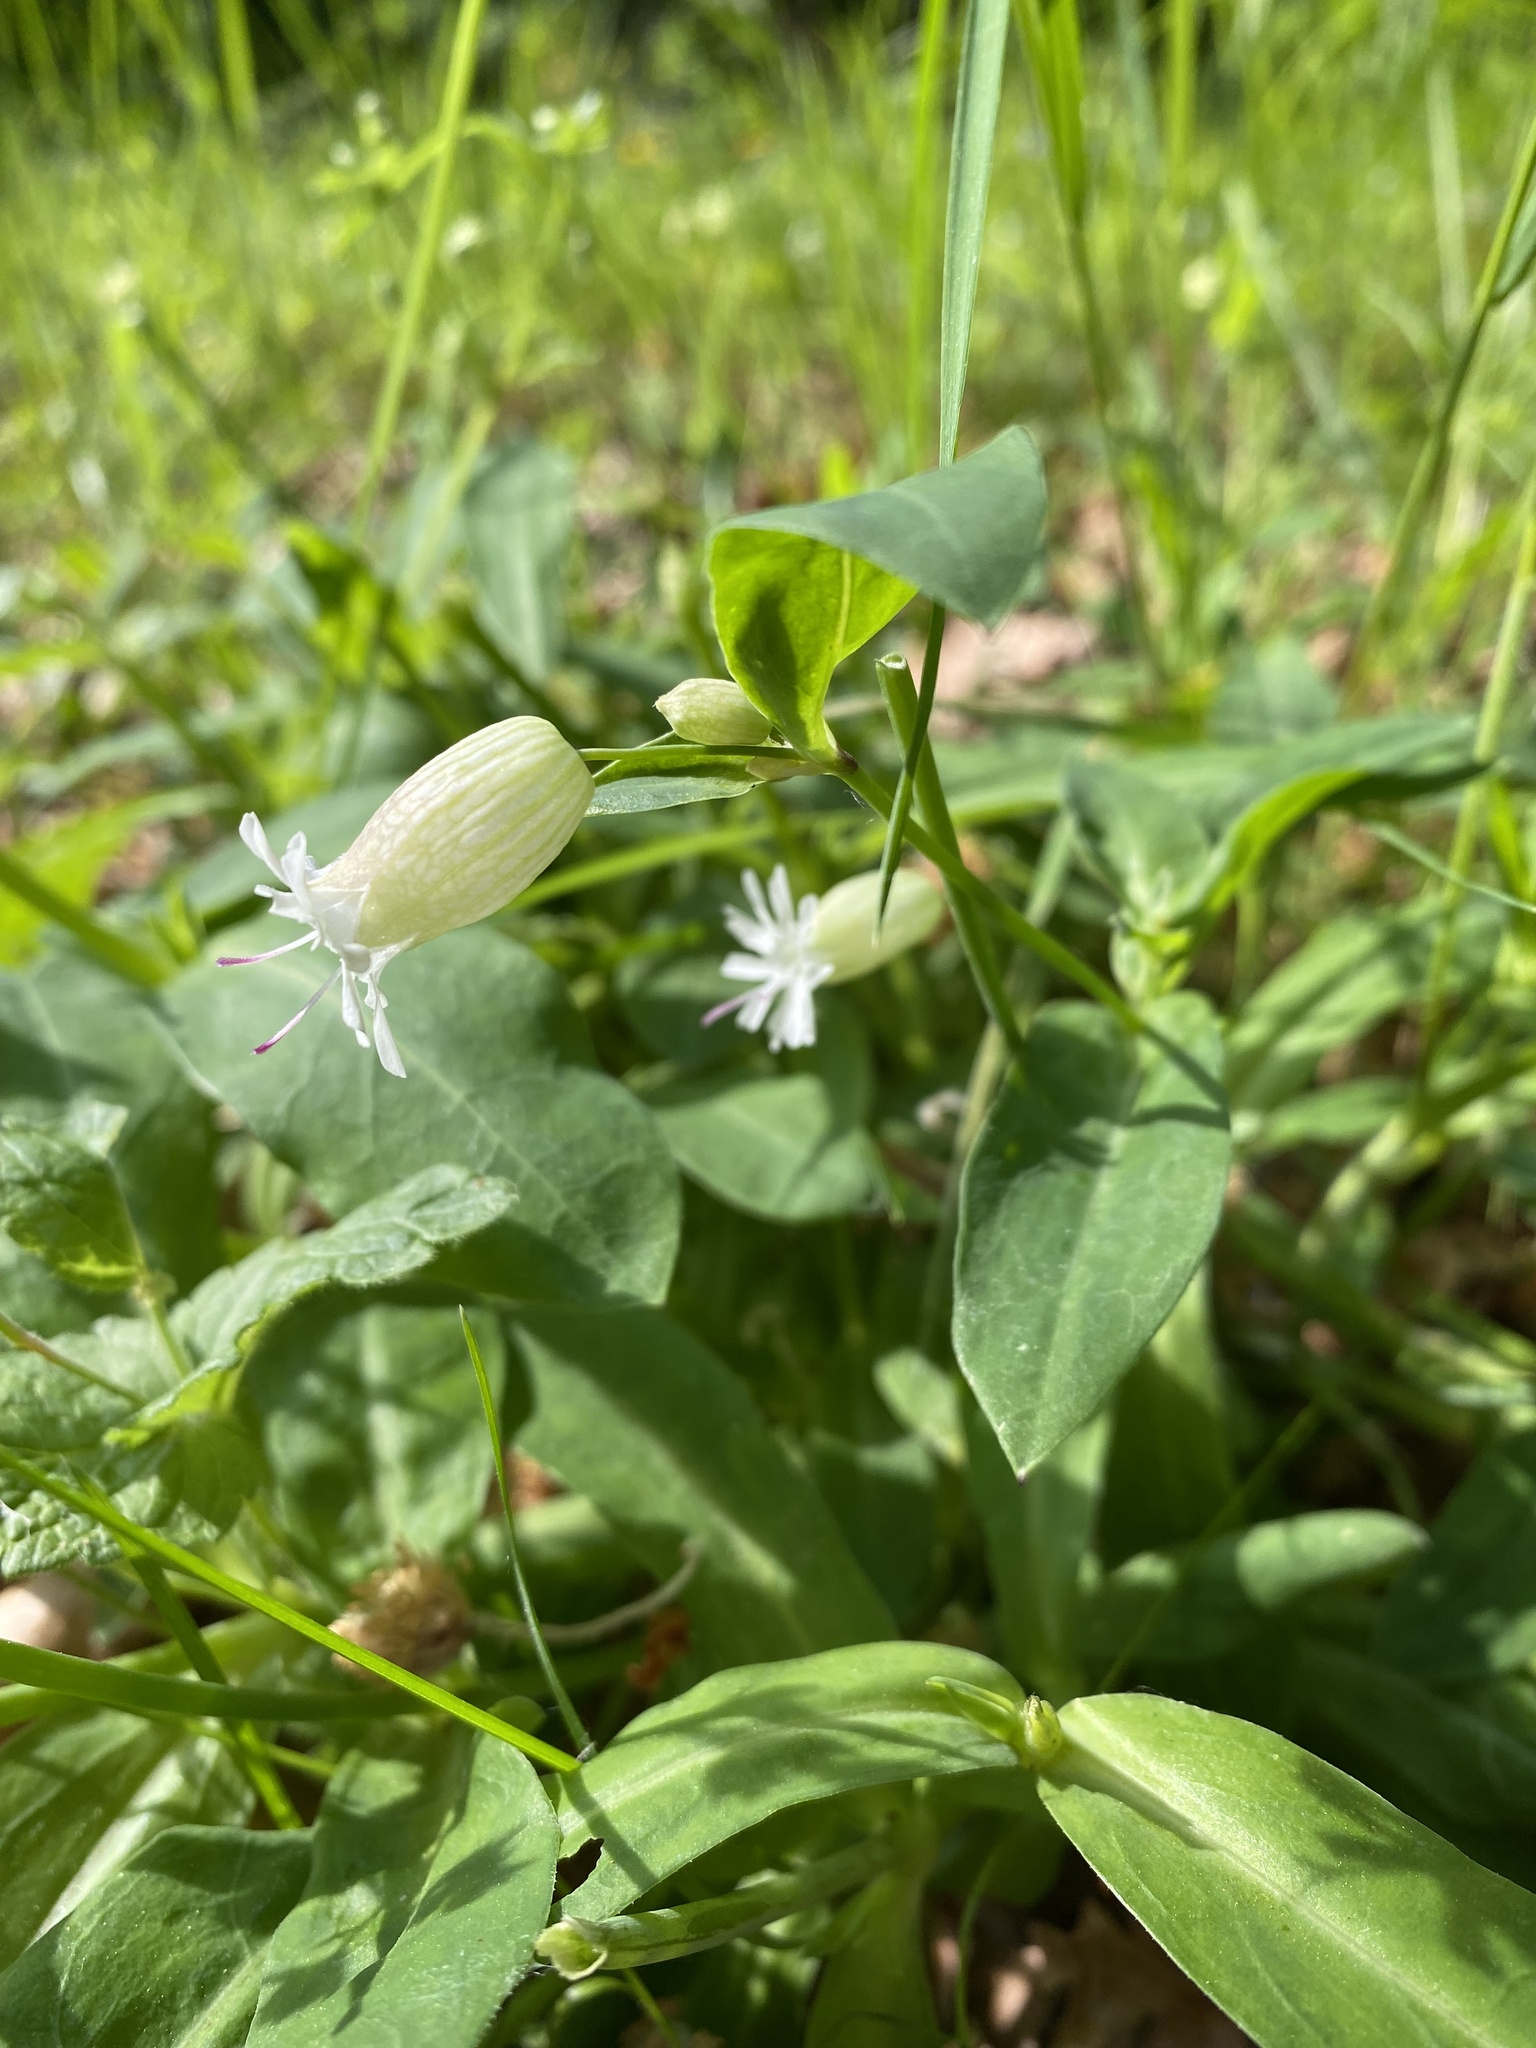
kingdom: Plantae
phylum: Tracheophyta
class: Magnoliopsida
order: Caryophyllales
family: Caryophyllaceae
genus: Silene
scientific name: Silene vulgaris
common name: Bladder campion
